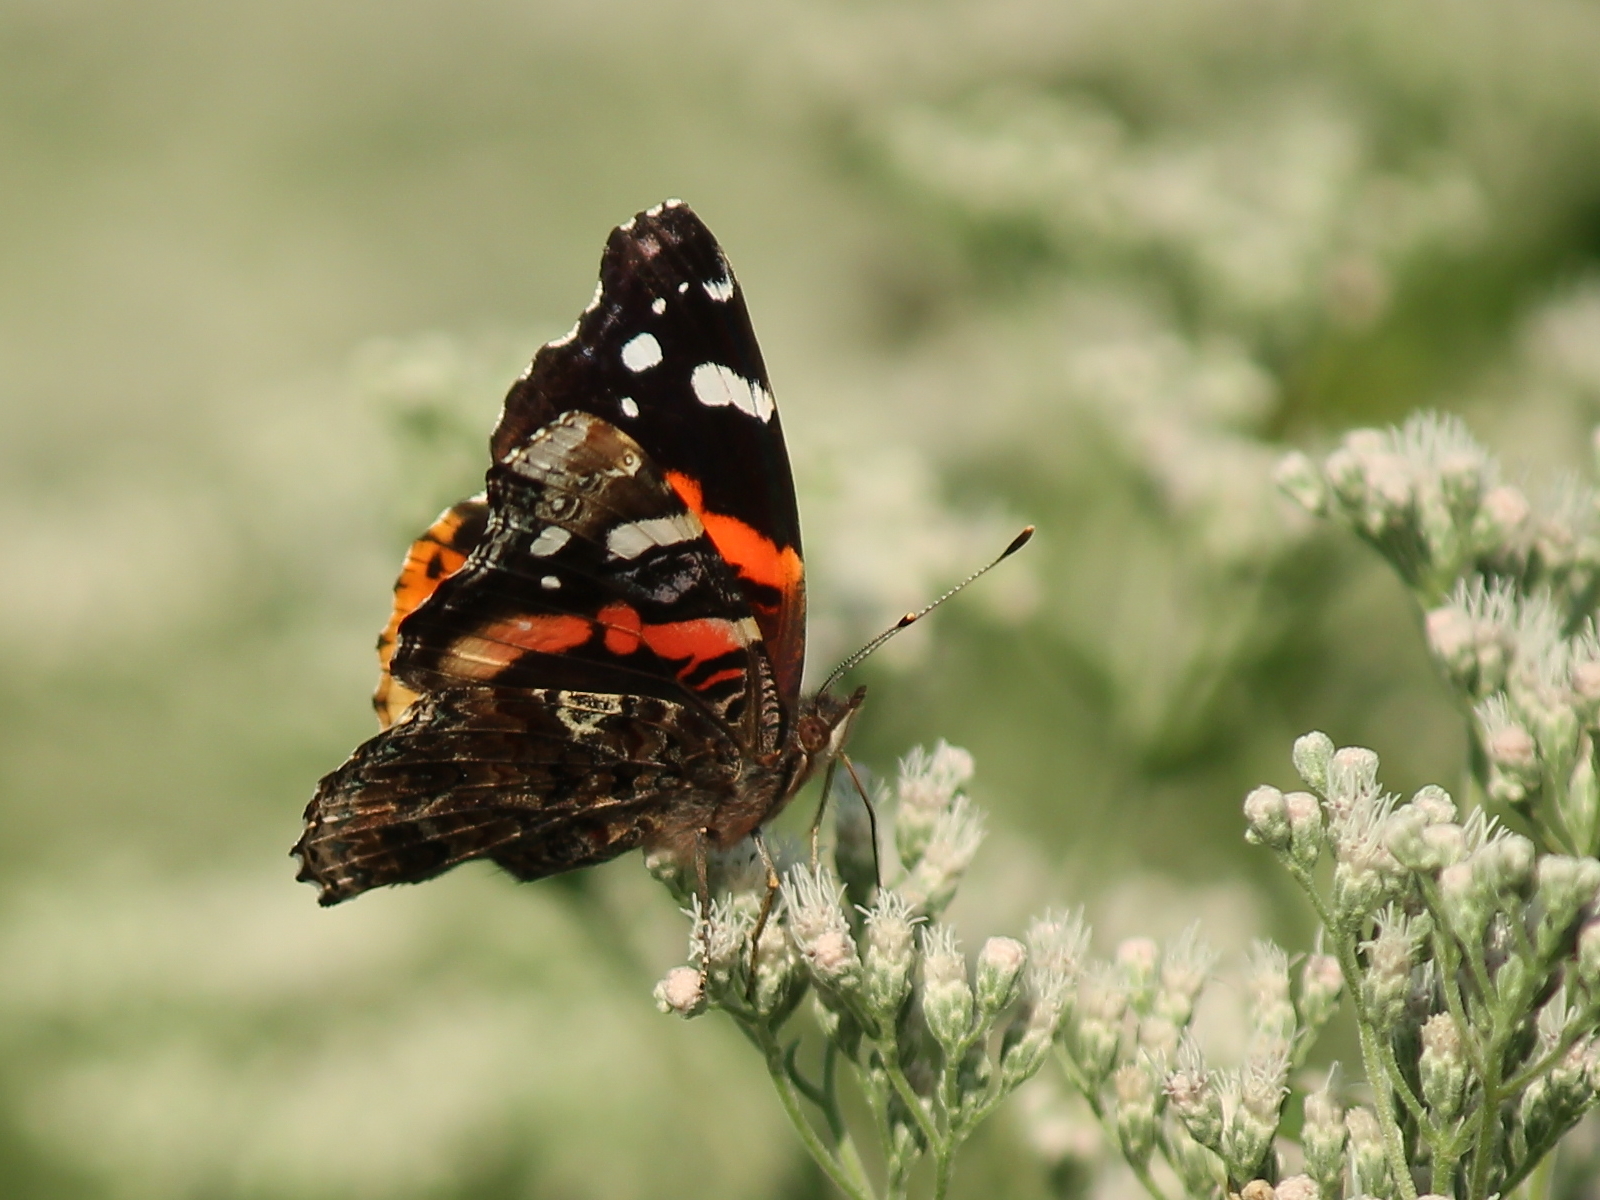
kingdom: Animalia
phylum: Arthropoda
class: Insecta
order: Lepidoptera
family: Nymphalidae
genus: Vanessa
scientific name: Vanessa atalanta
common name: Red admiral
